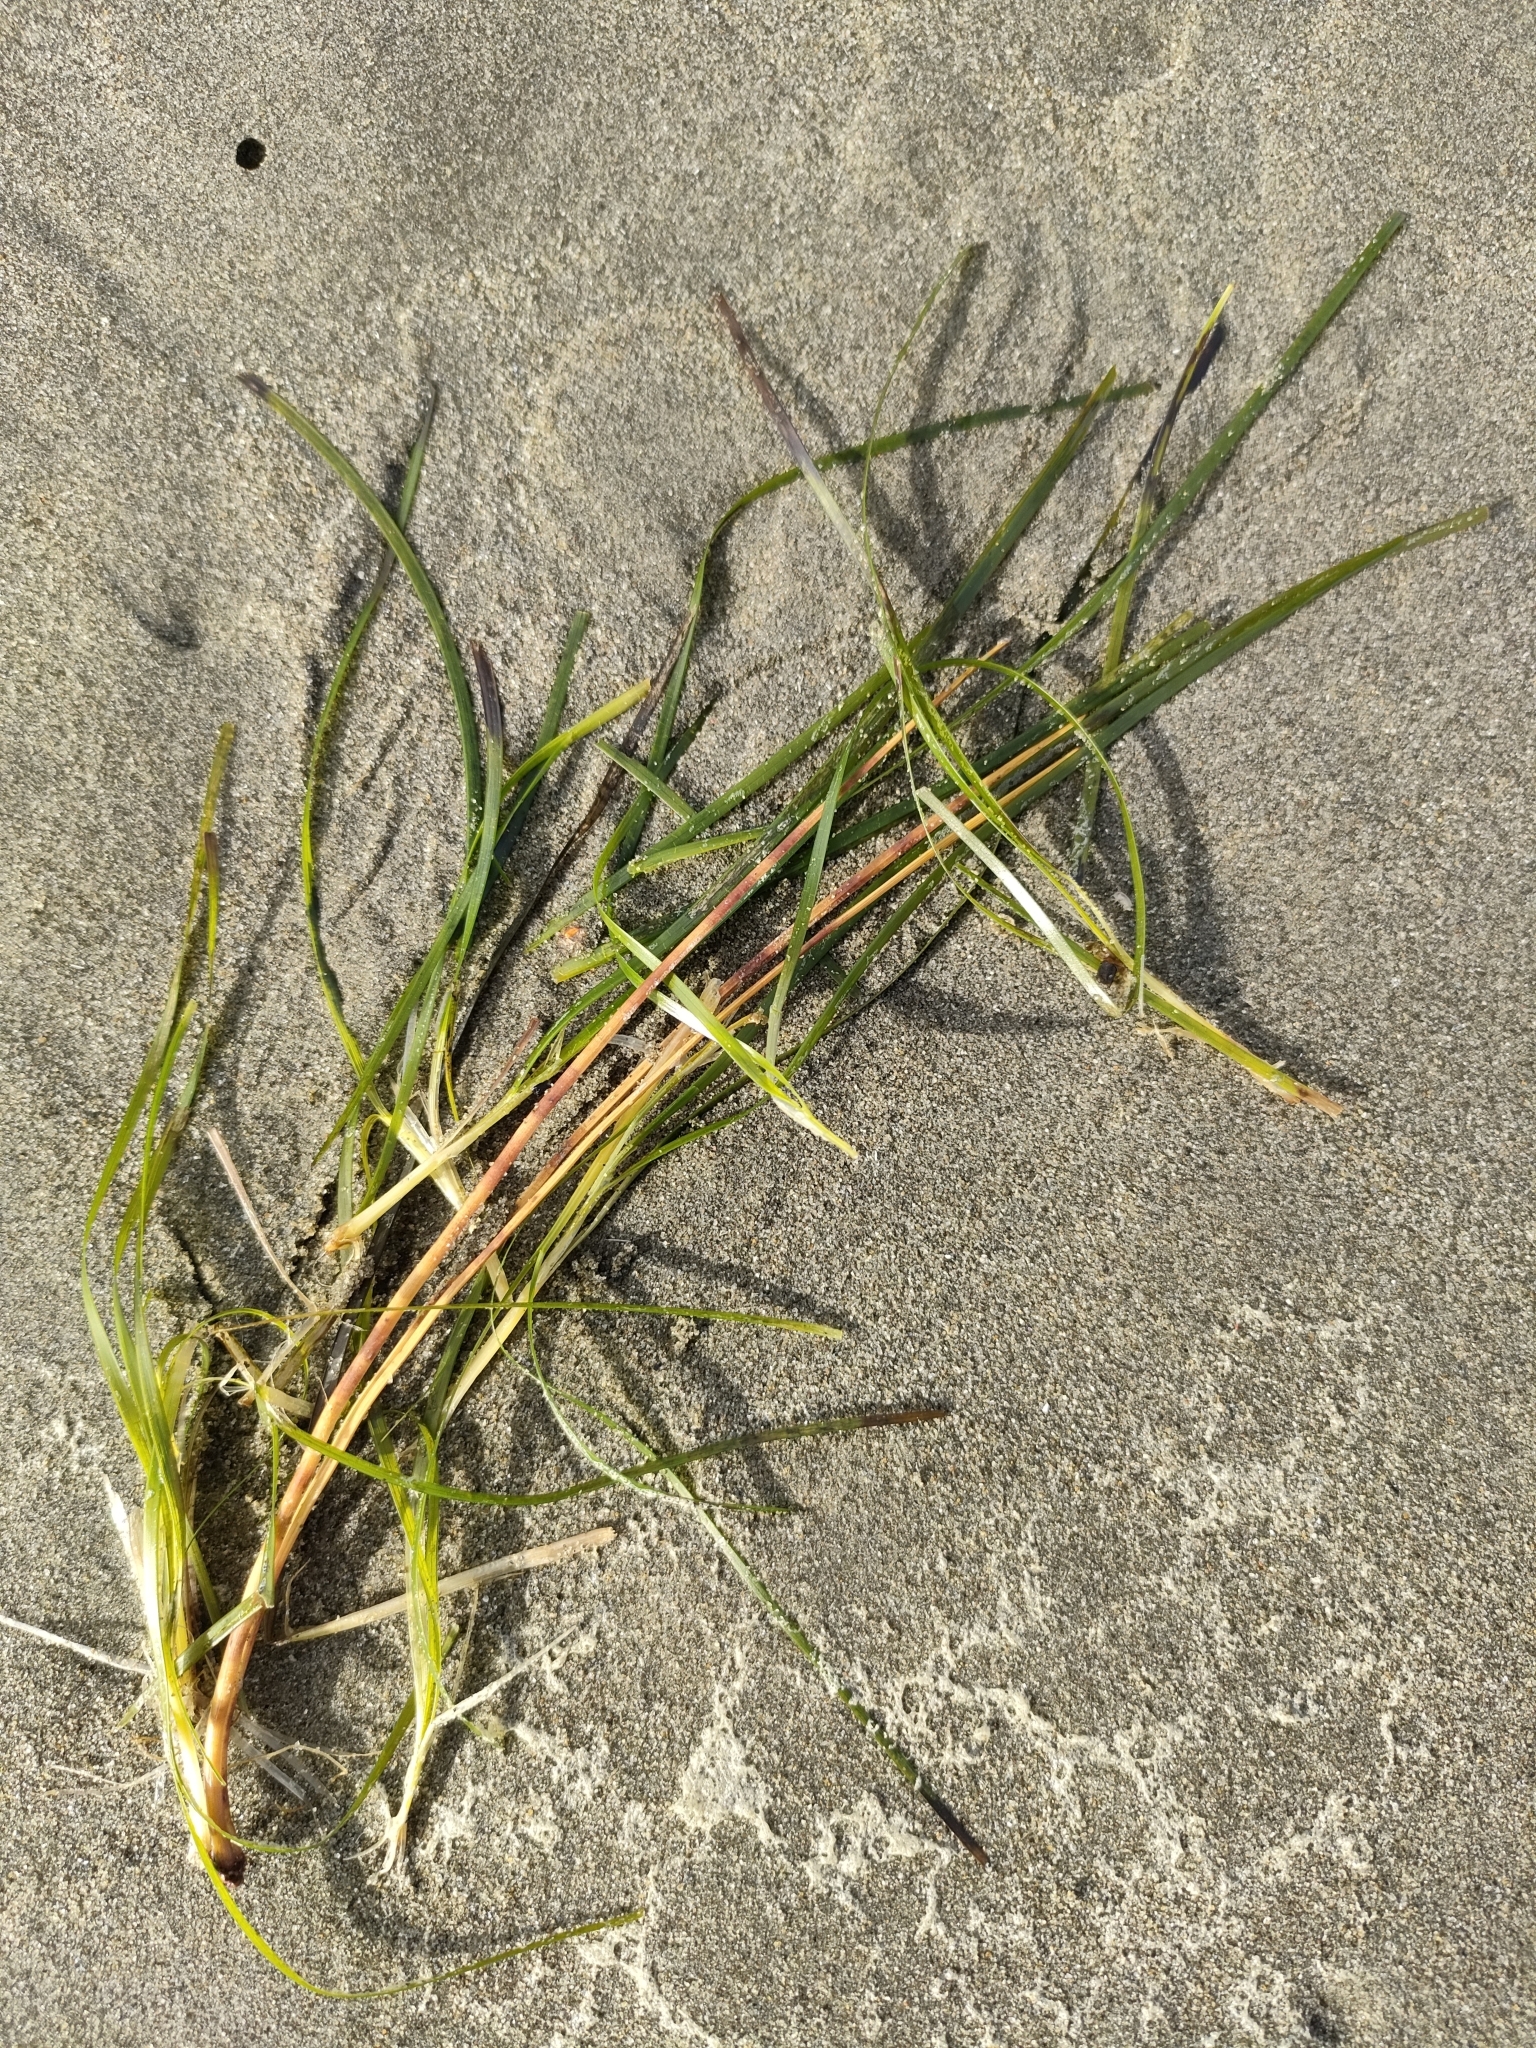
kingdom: Plantae
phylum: Tracheophyta
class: Liliopsida
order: Alismatales
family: Zosteraceae
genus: Zostera
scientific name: Zostera novazelandica
